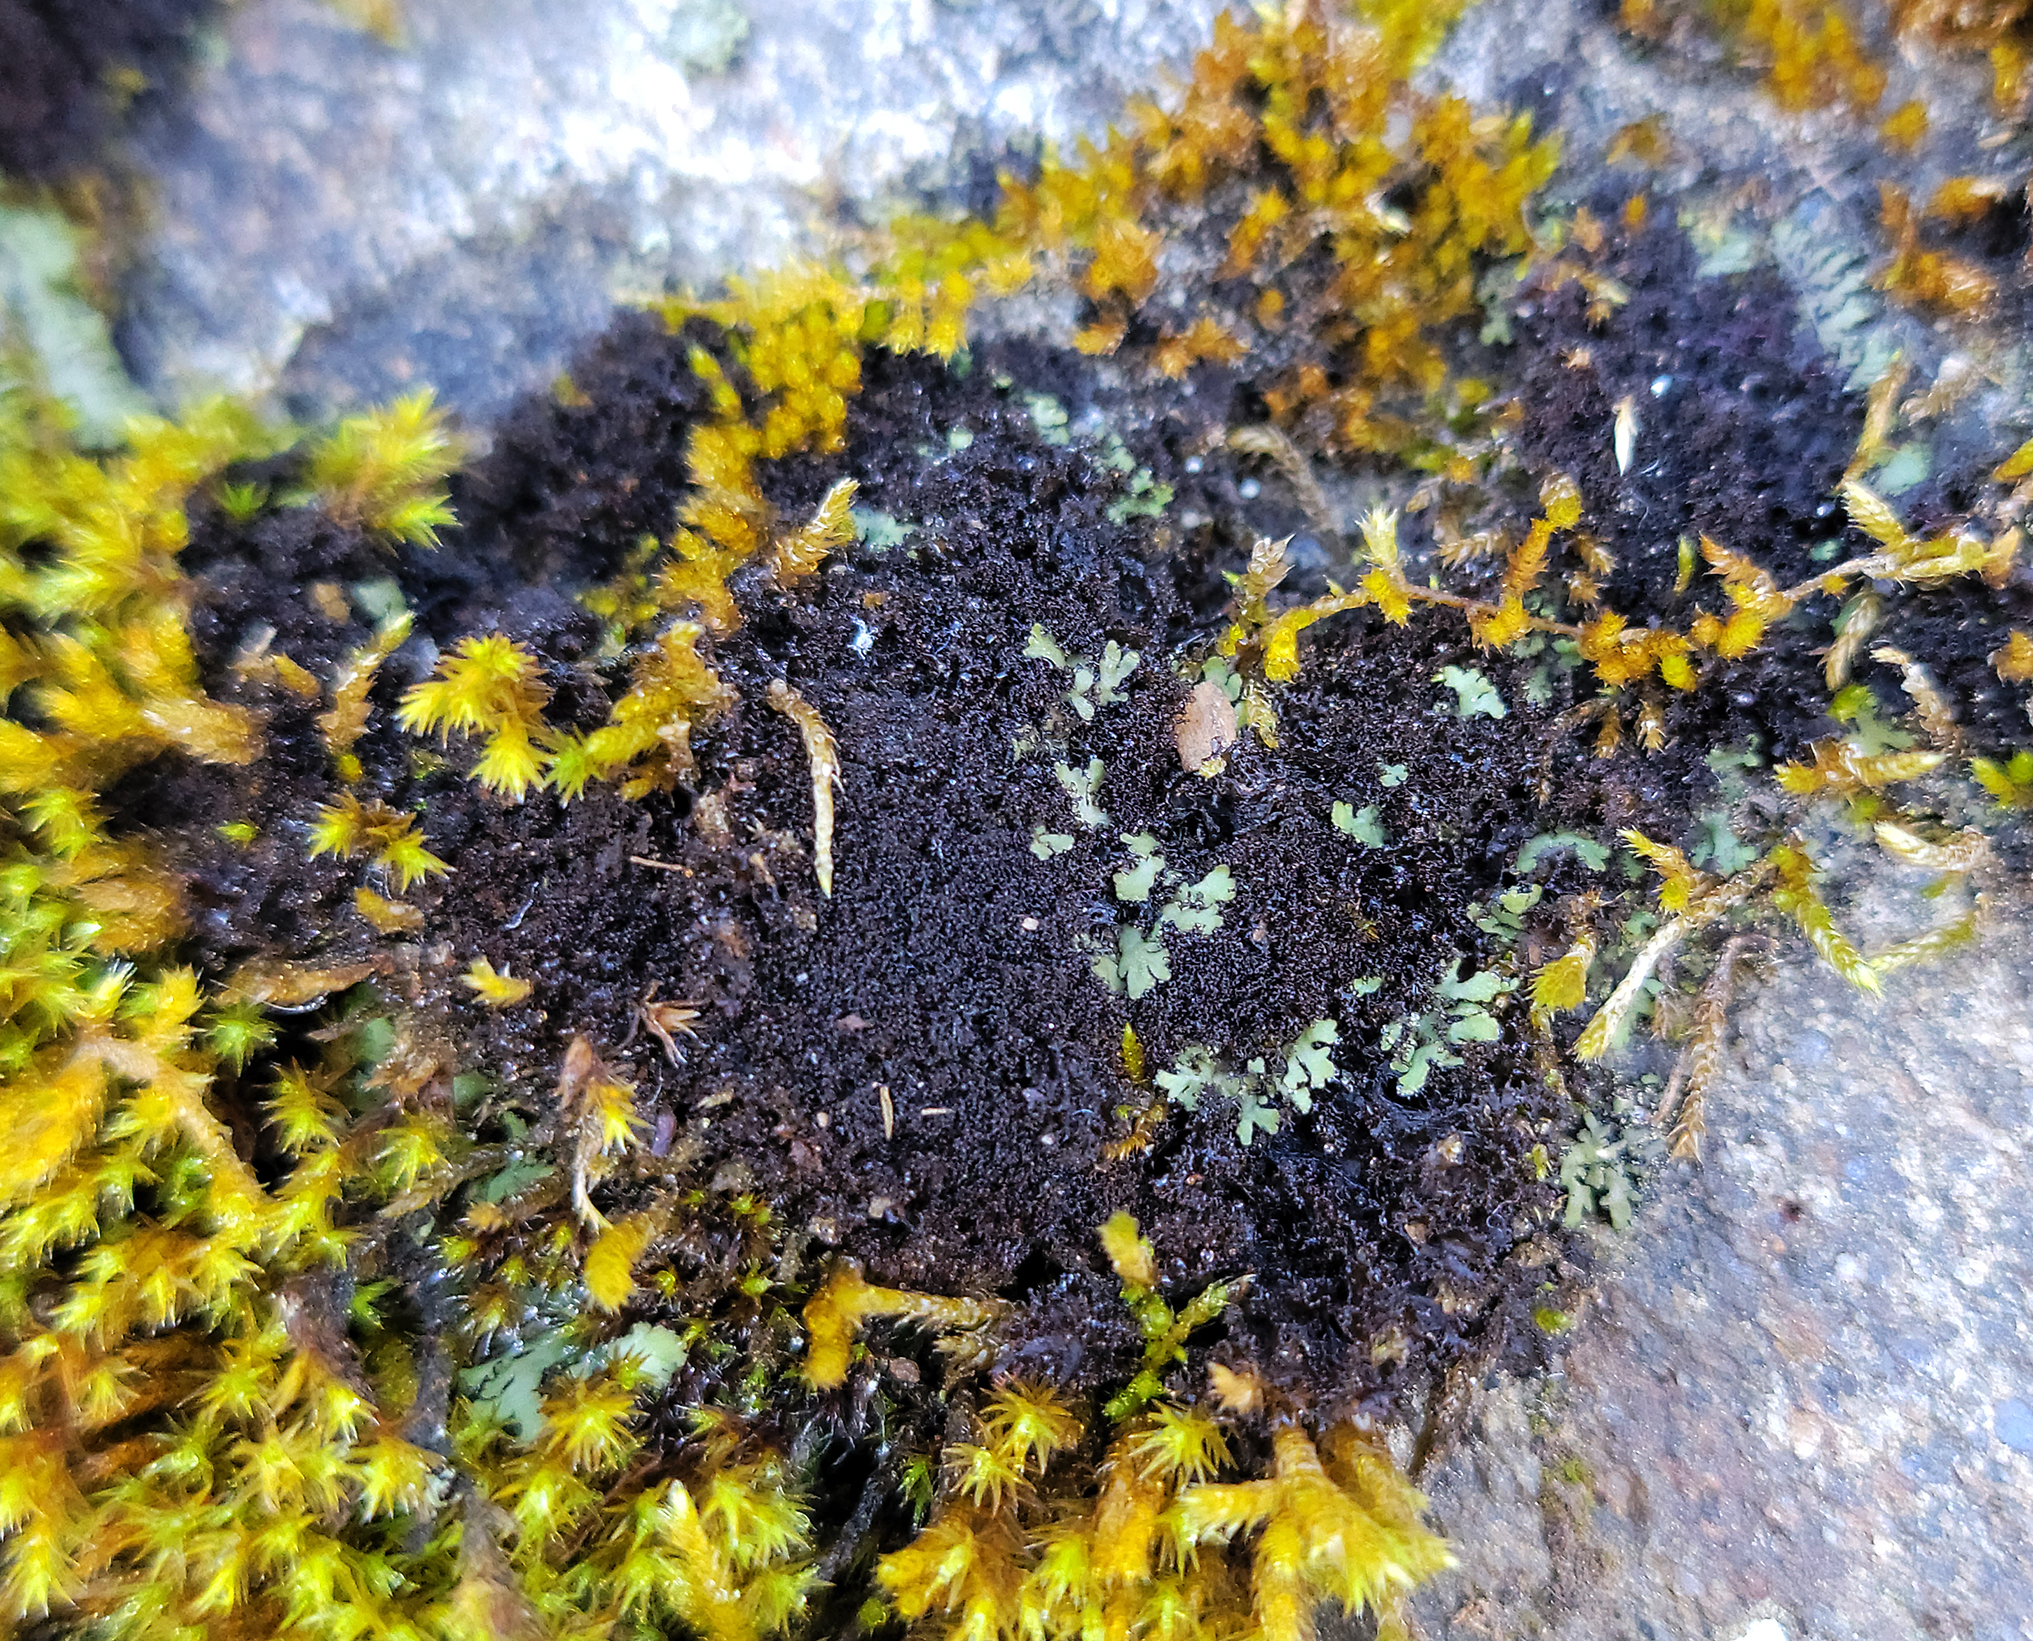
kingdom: Fungi
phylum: Ascomycota
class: Lecanoromycetes
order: Peltigerales
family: Collemataceae
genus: Scytinium
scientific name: Scytinium lichenoides
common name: Tattered jellyskin lichen
